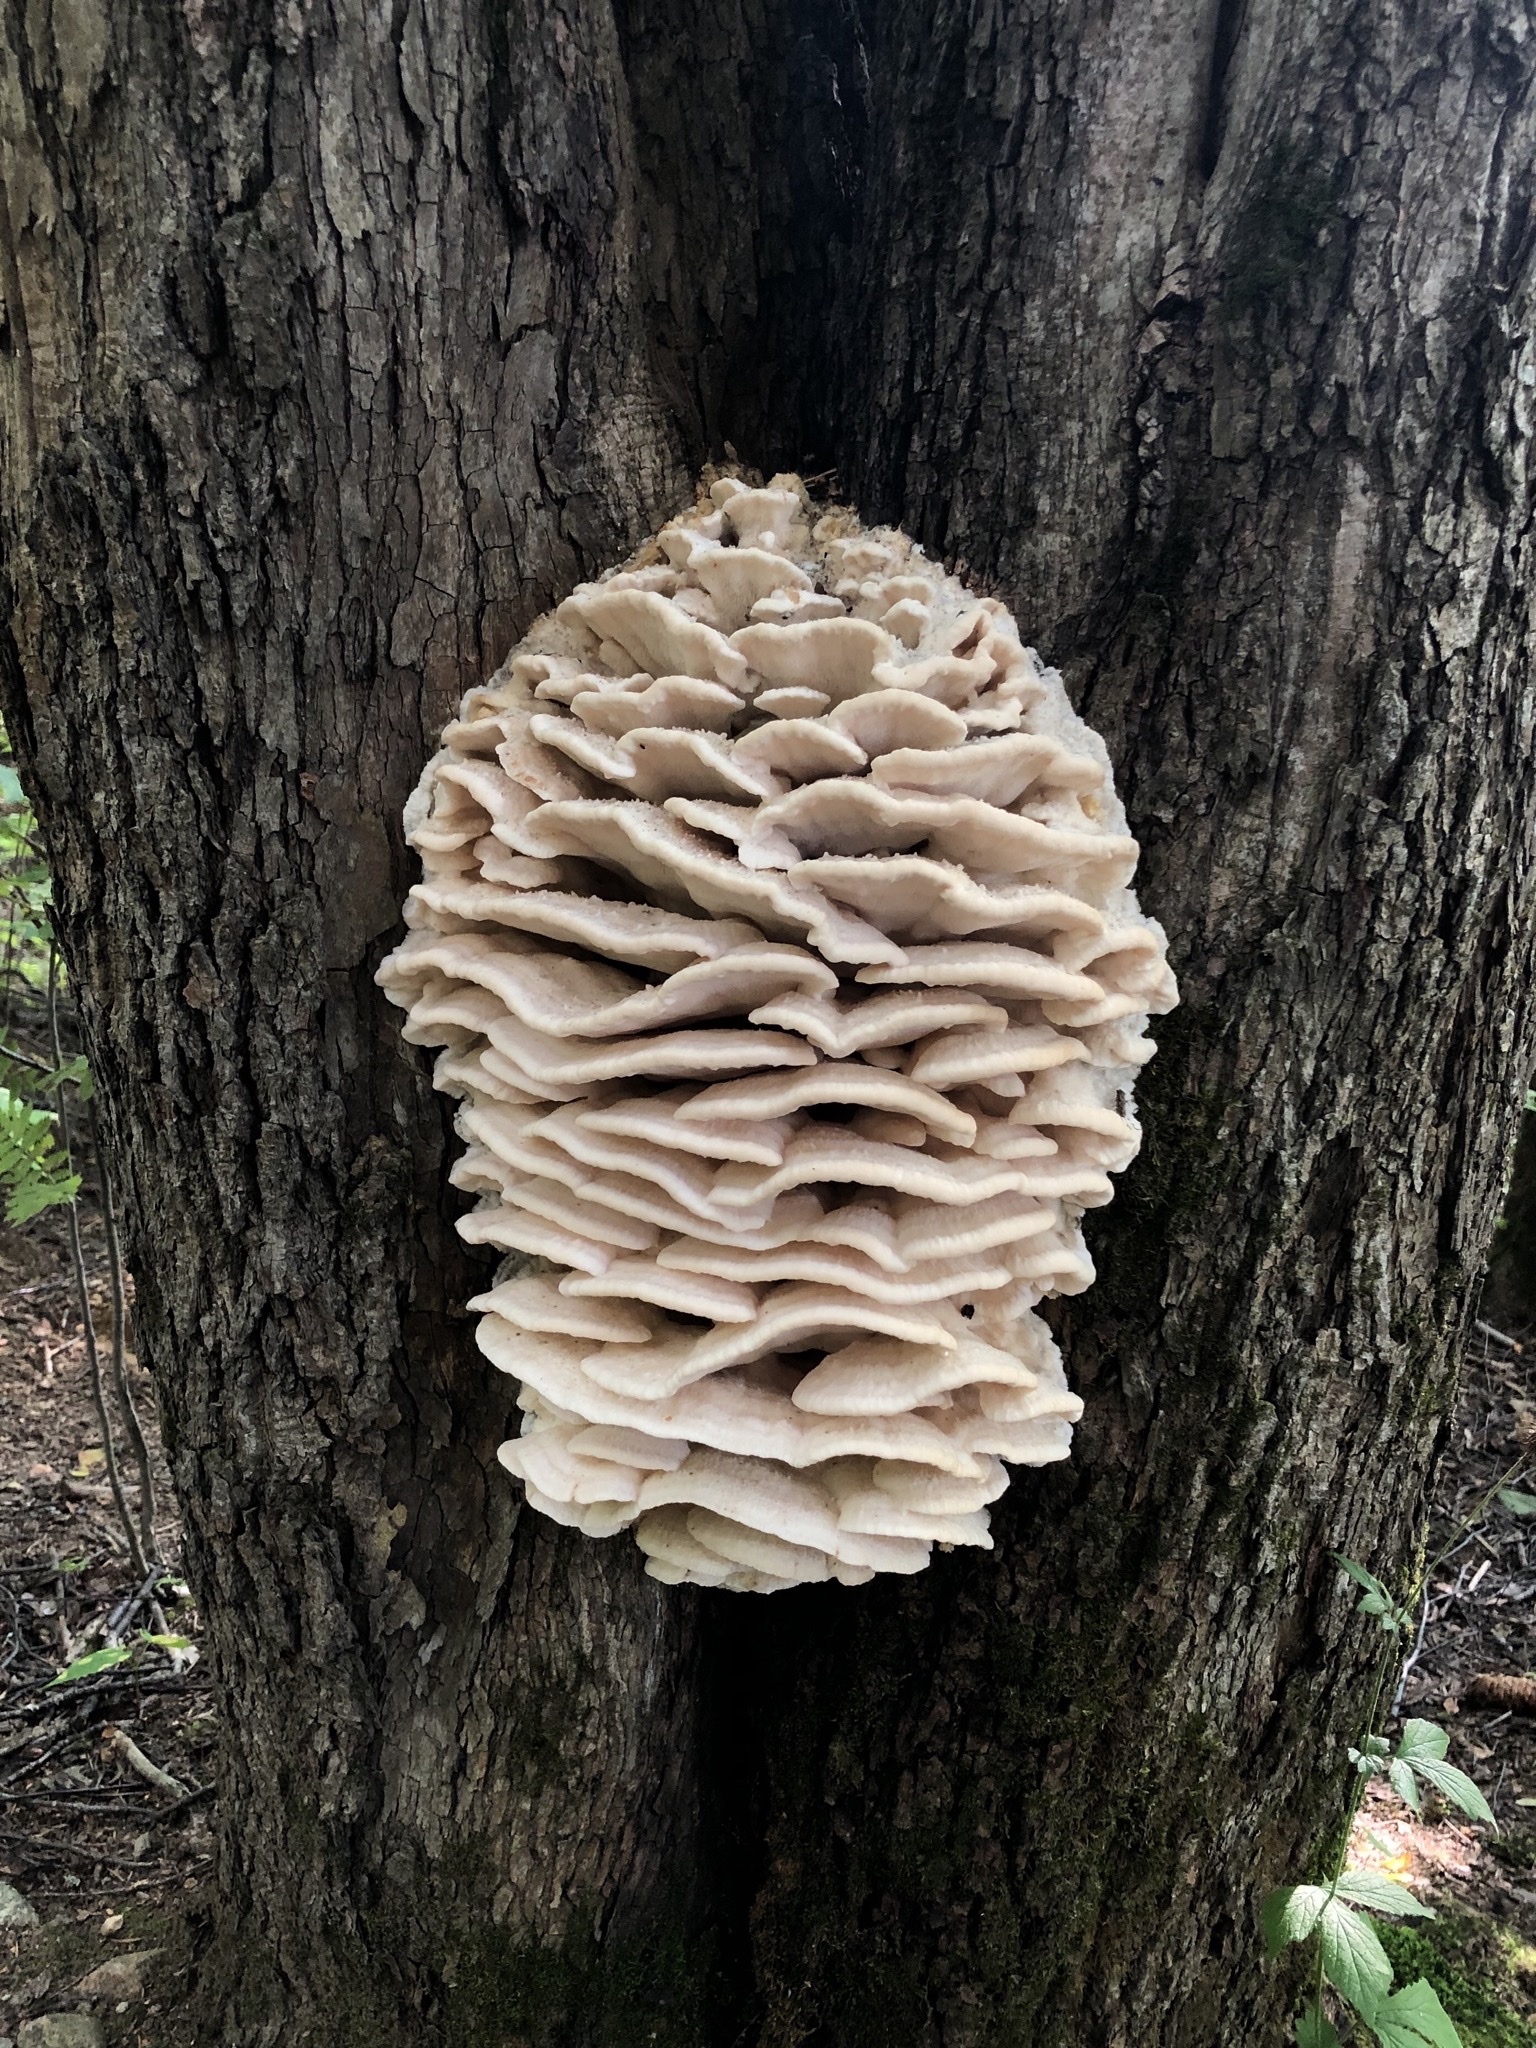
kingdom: Fungi
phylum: Basidiomycota
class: Agaricomycetes
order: Polyporales
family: Meruliaceae
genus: Climacodon
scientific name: Climacodon septentrionalis
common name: Northern tooth
